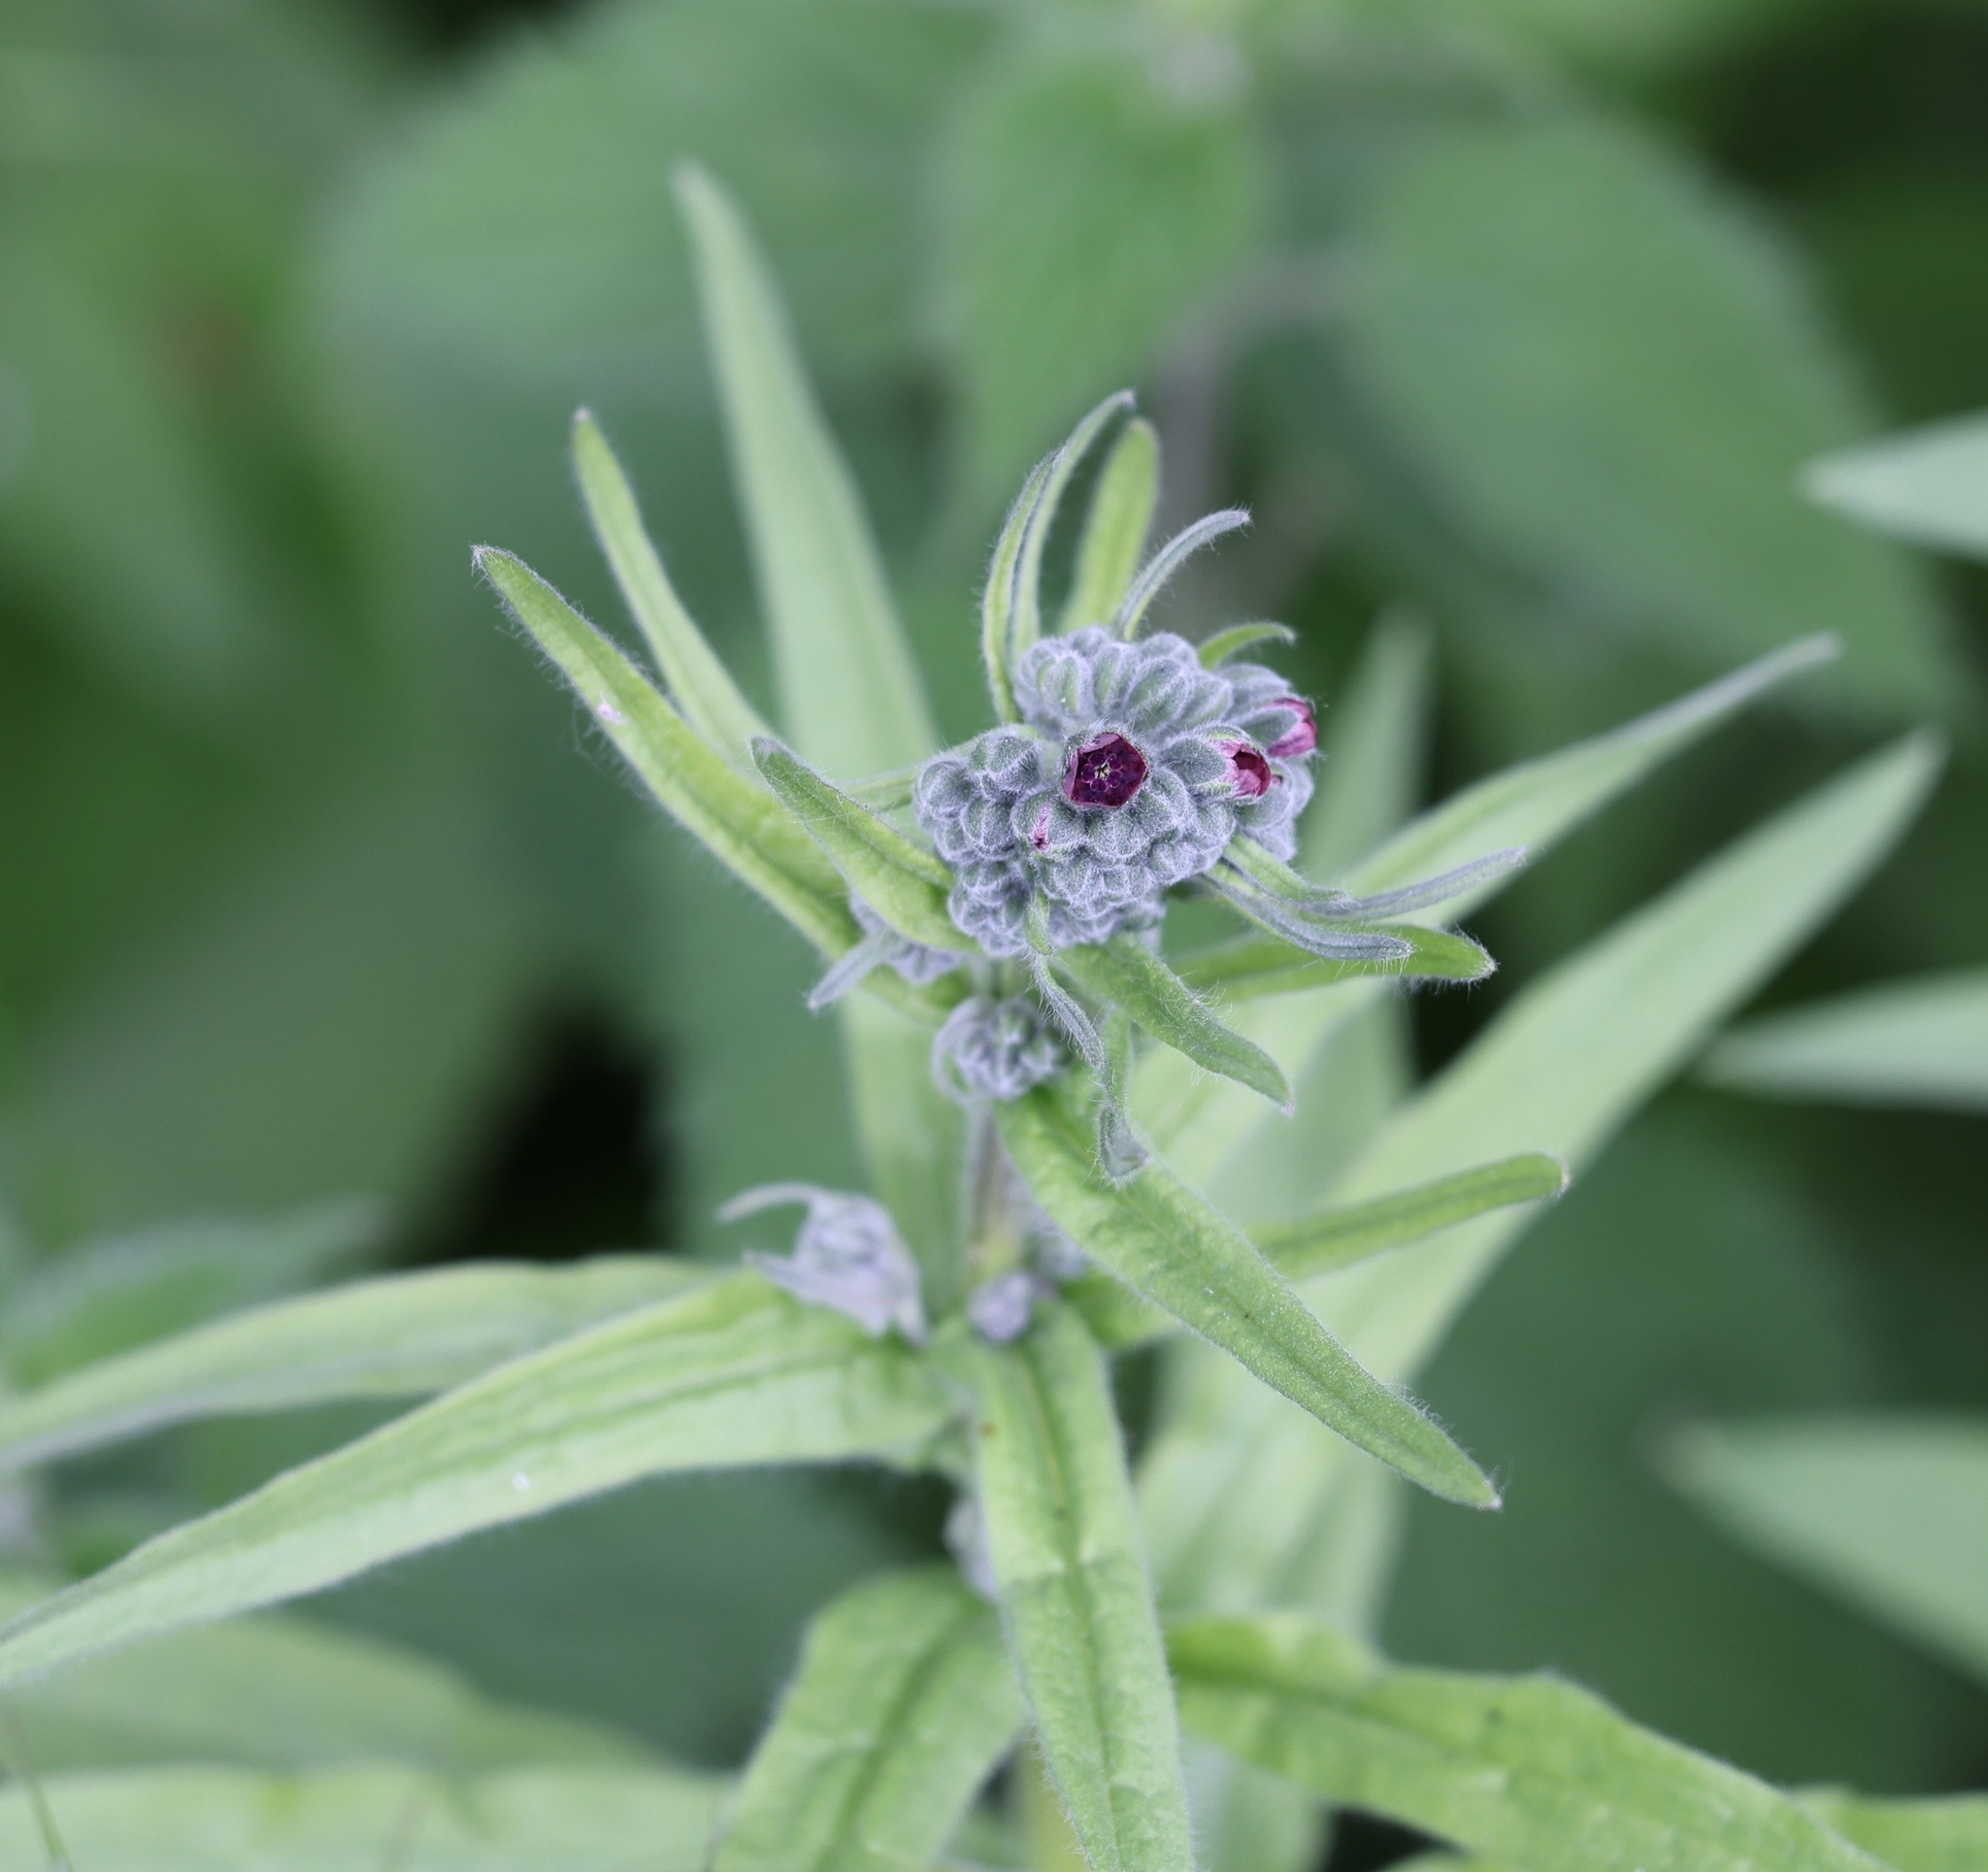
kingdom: Plantae
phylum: Tracheophyta
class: Magnoliopsida
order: Boraginales
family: Boraginaceae
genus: Cynoglossum
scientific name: Cynoglossum officinale
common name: Hound's-tongue
